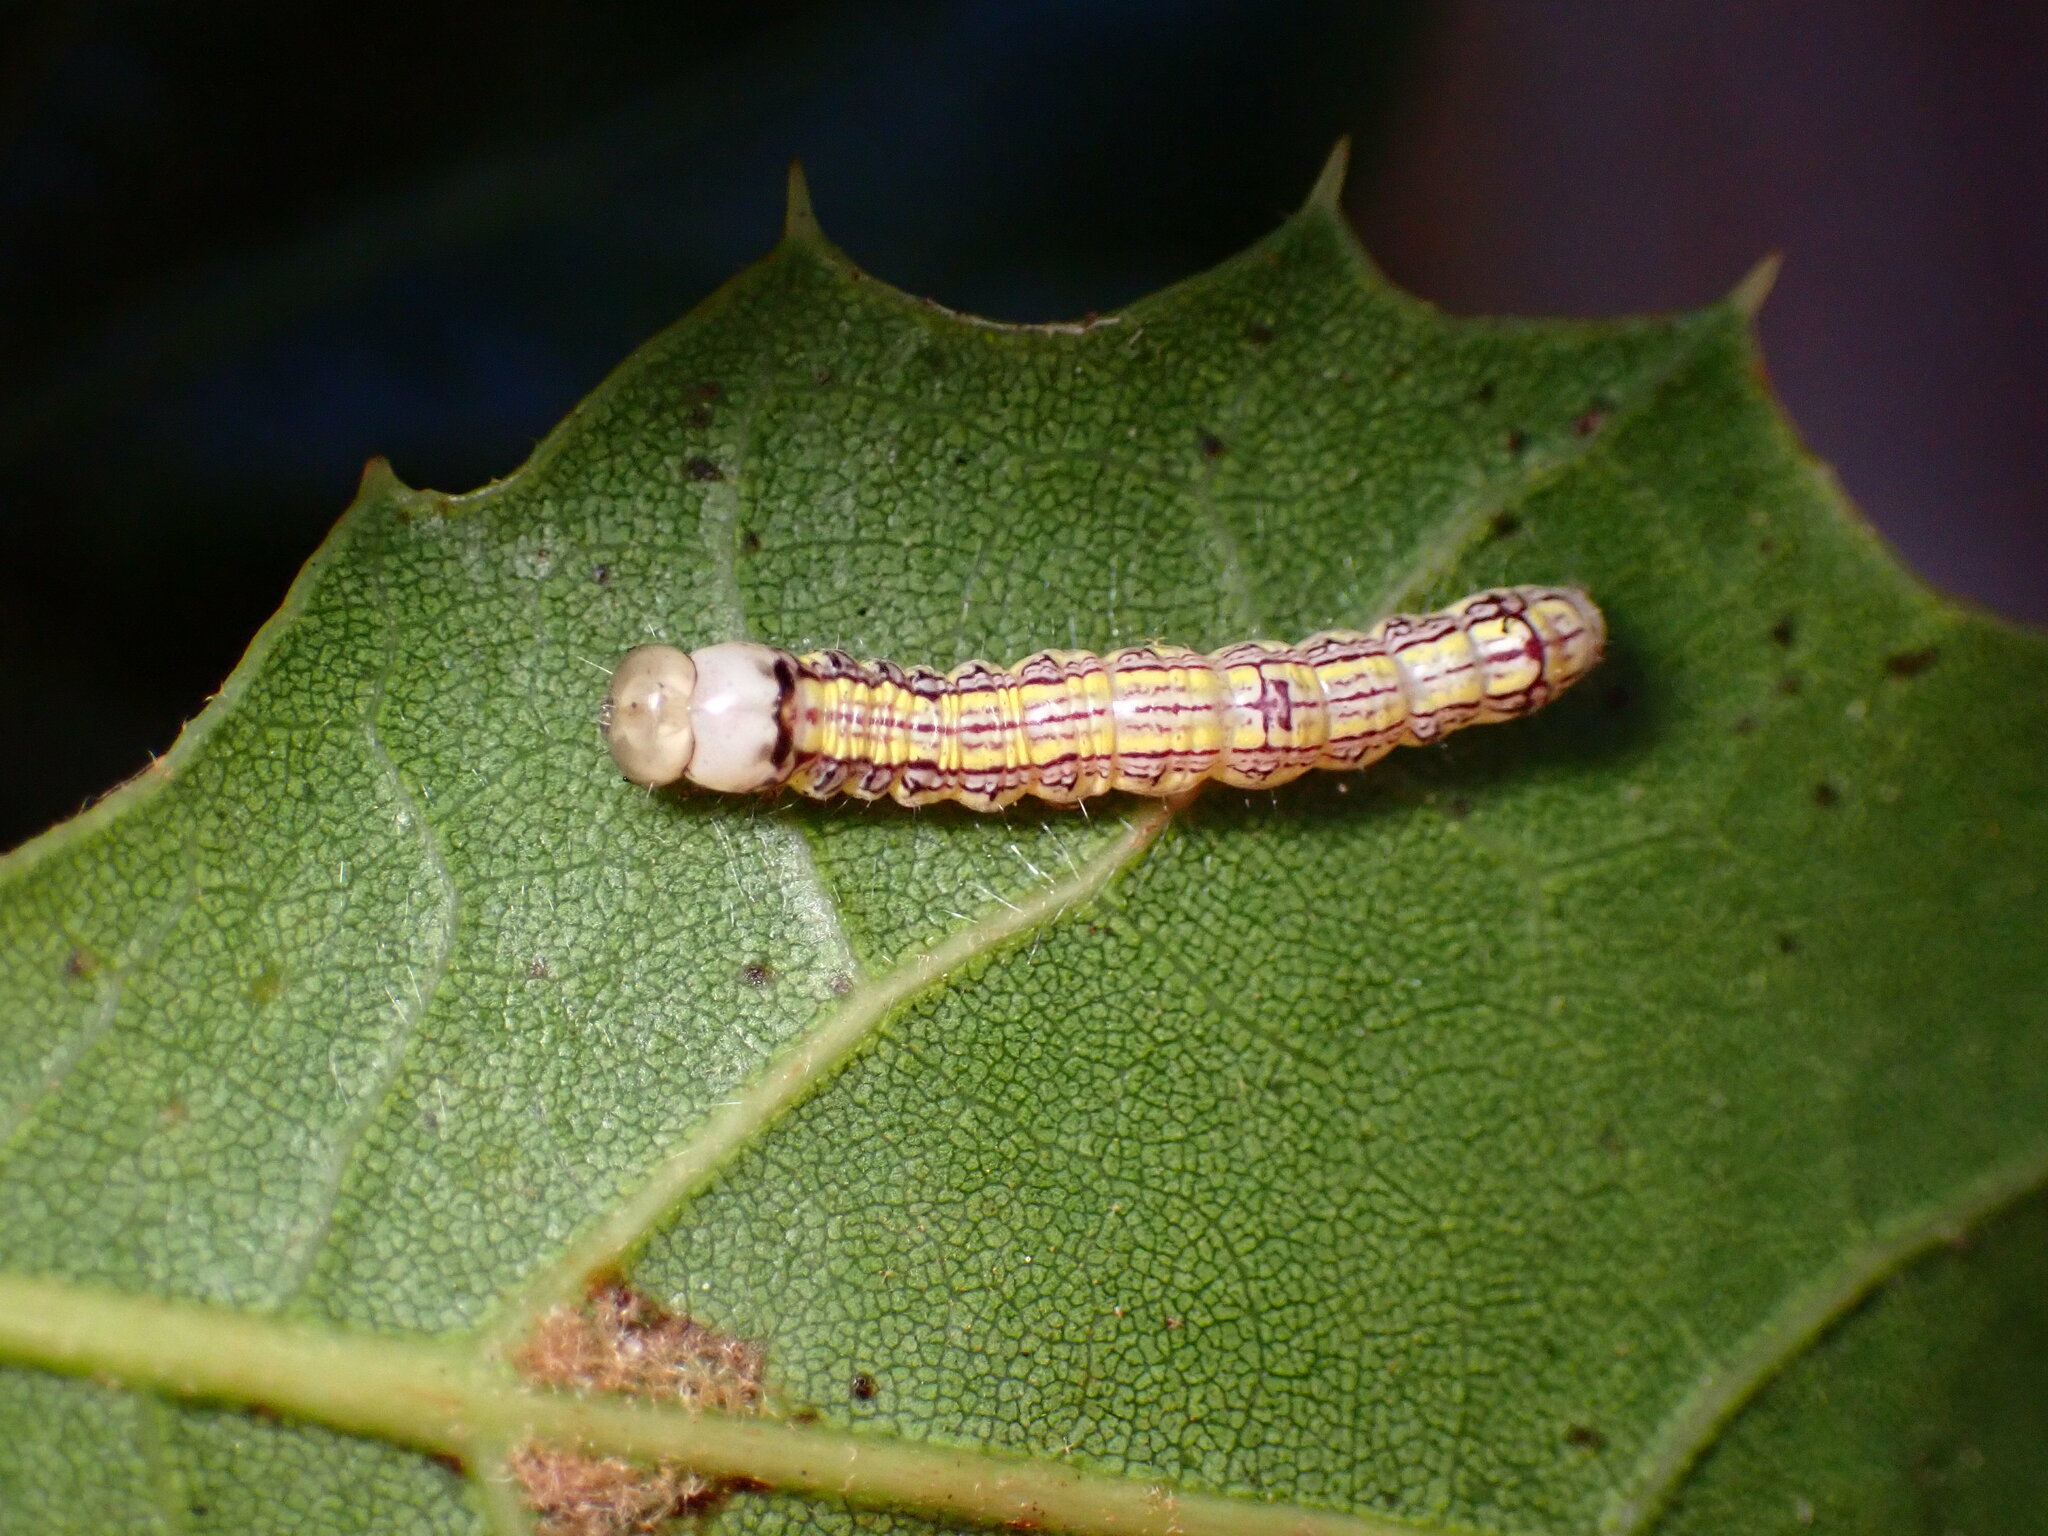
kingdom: Animalia
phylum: Arthropoda
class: Insecta
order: Lepidoptera
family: Notodontidae
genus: Phryganidia
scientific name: Phryganidia californica
